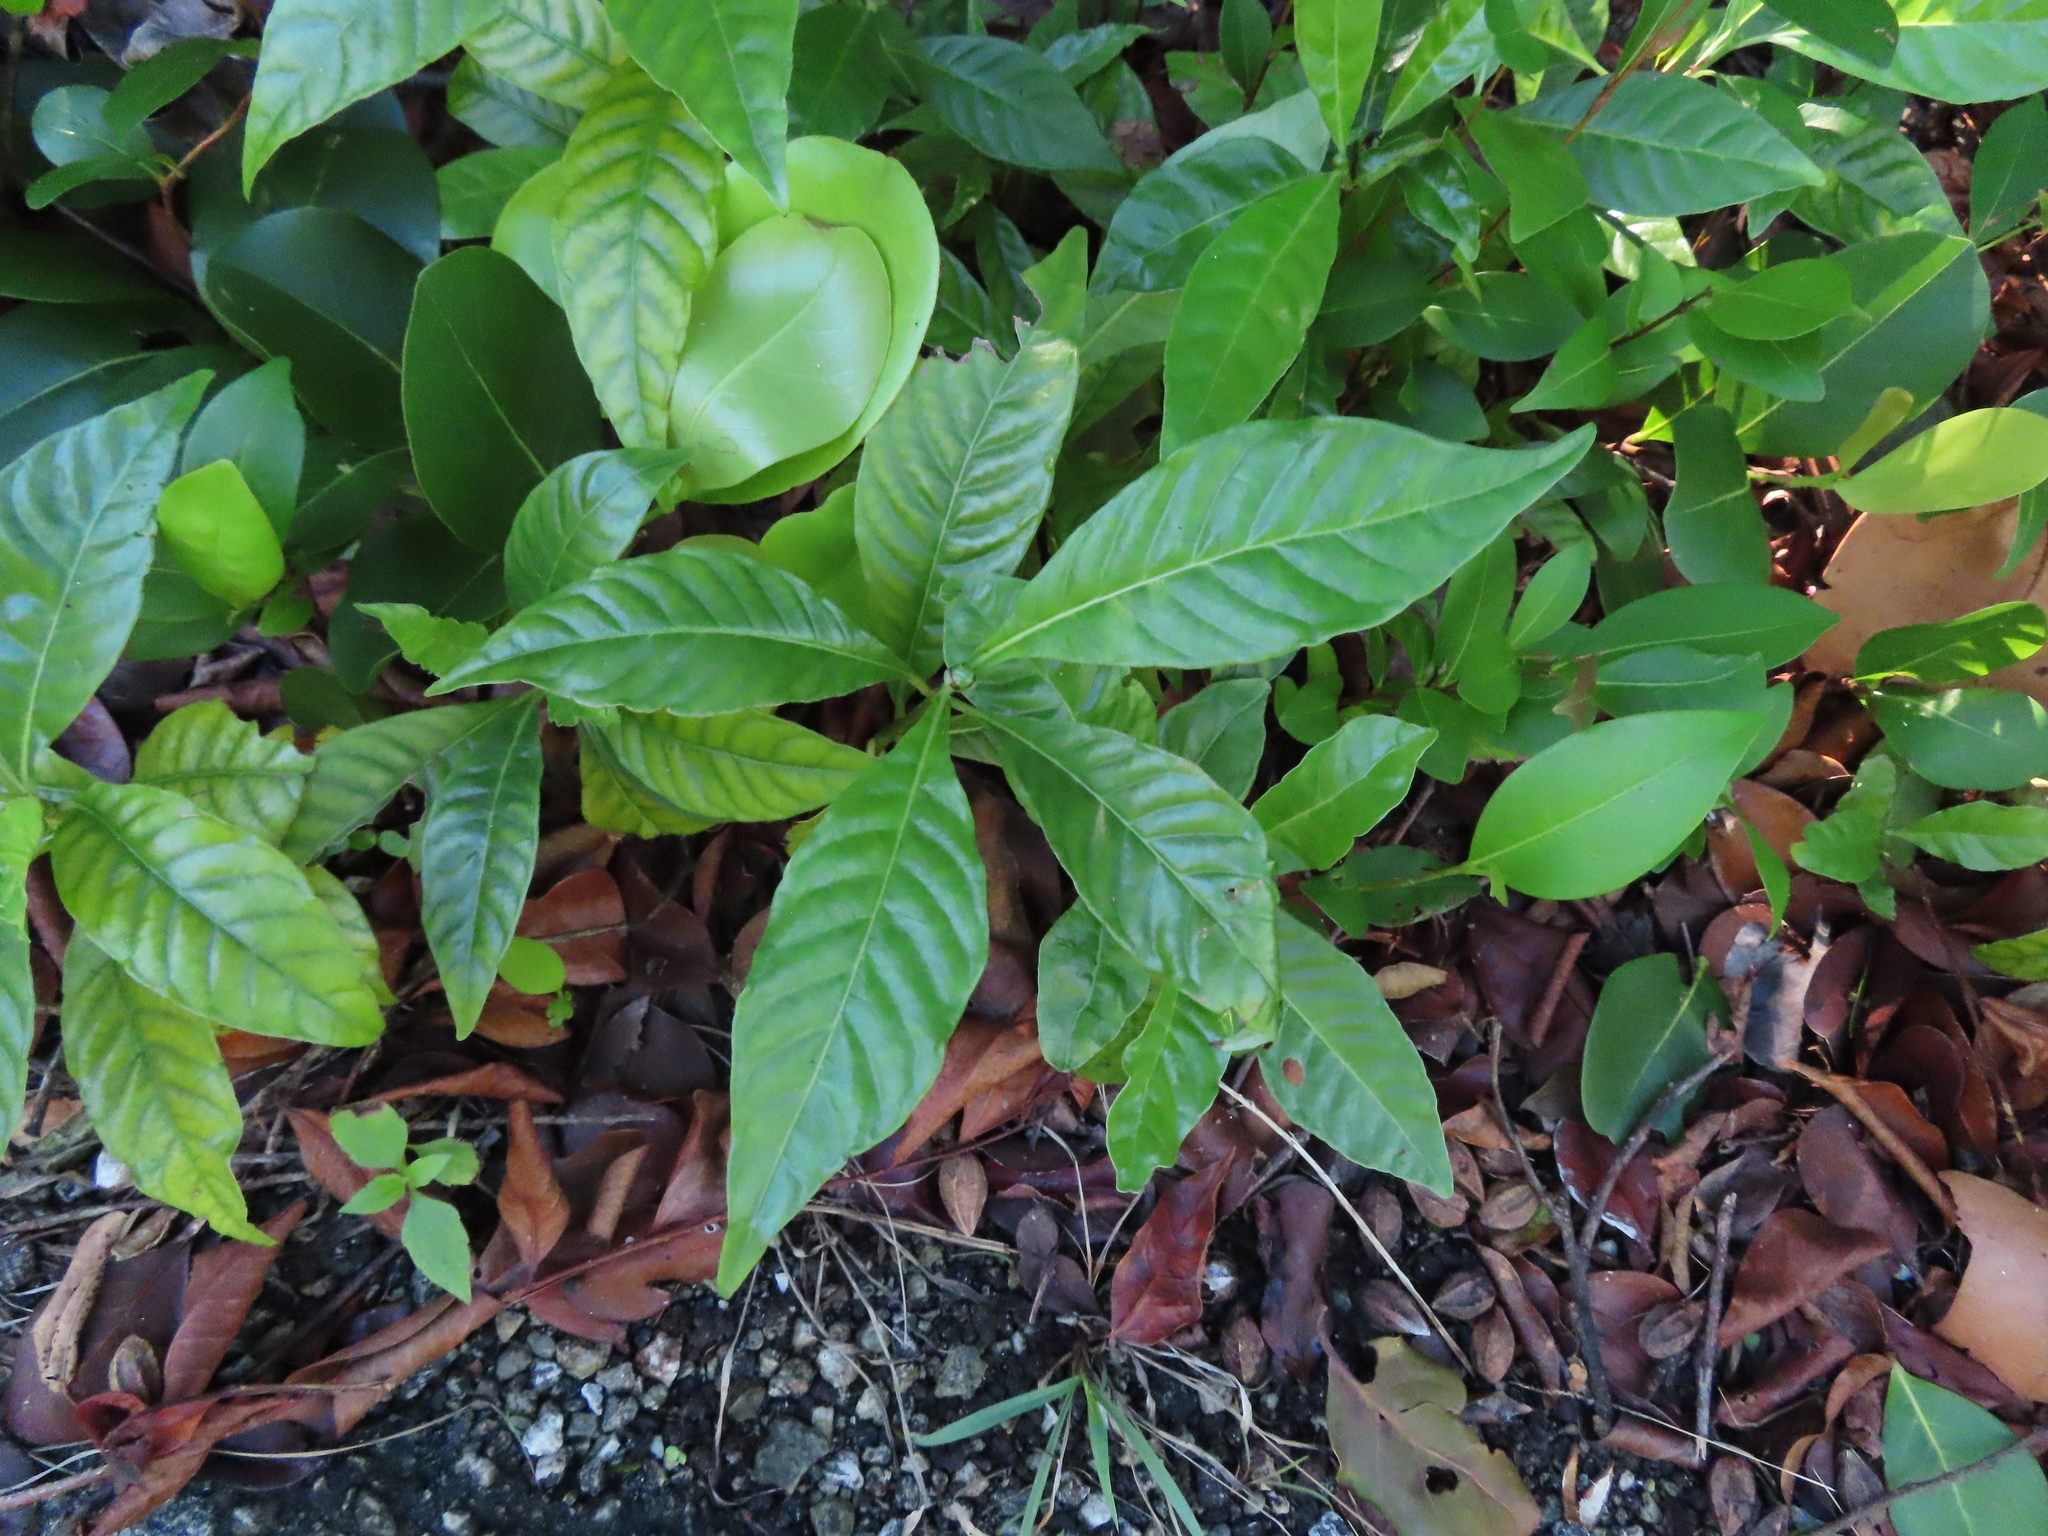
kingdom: Plantae
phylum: Tracheophyta
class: Magnoliopsida
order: Gentianales
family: Rubiaceae
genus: Psychotria
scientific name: Psychotria nervosa
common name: Bastard cankerberry
